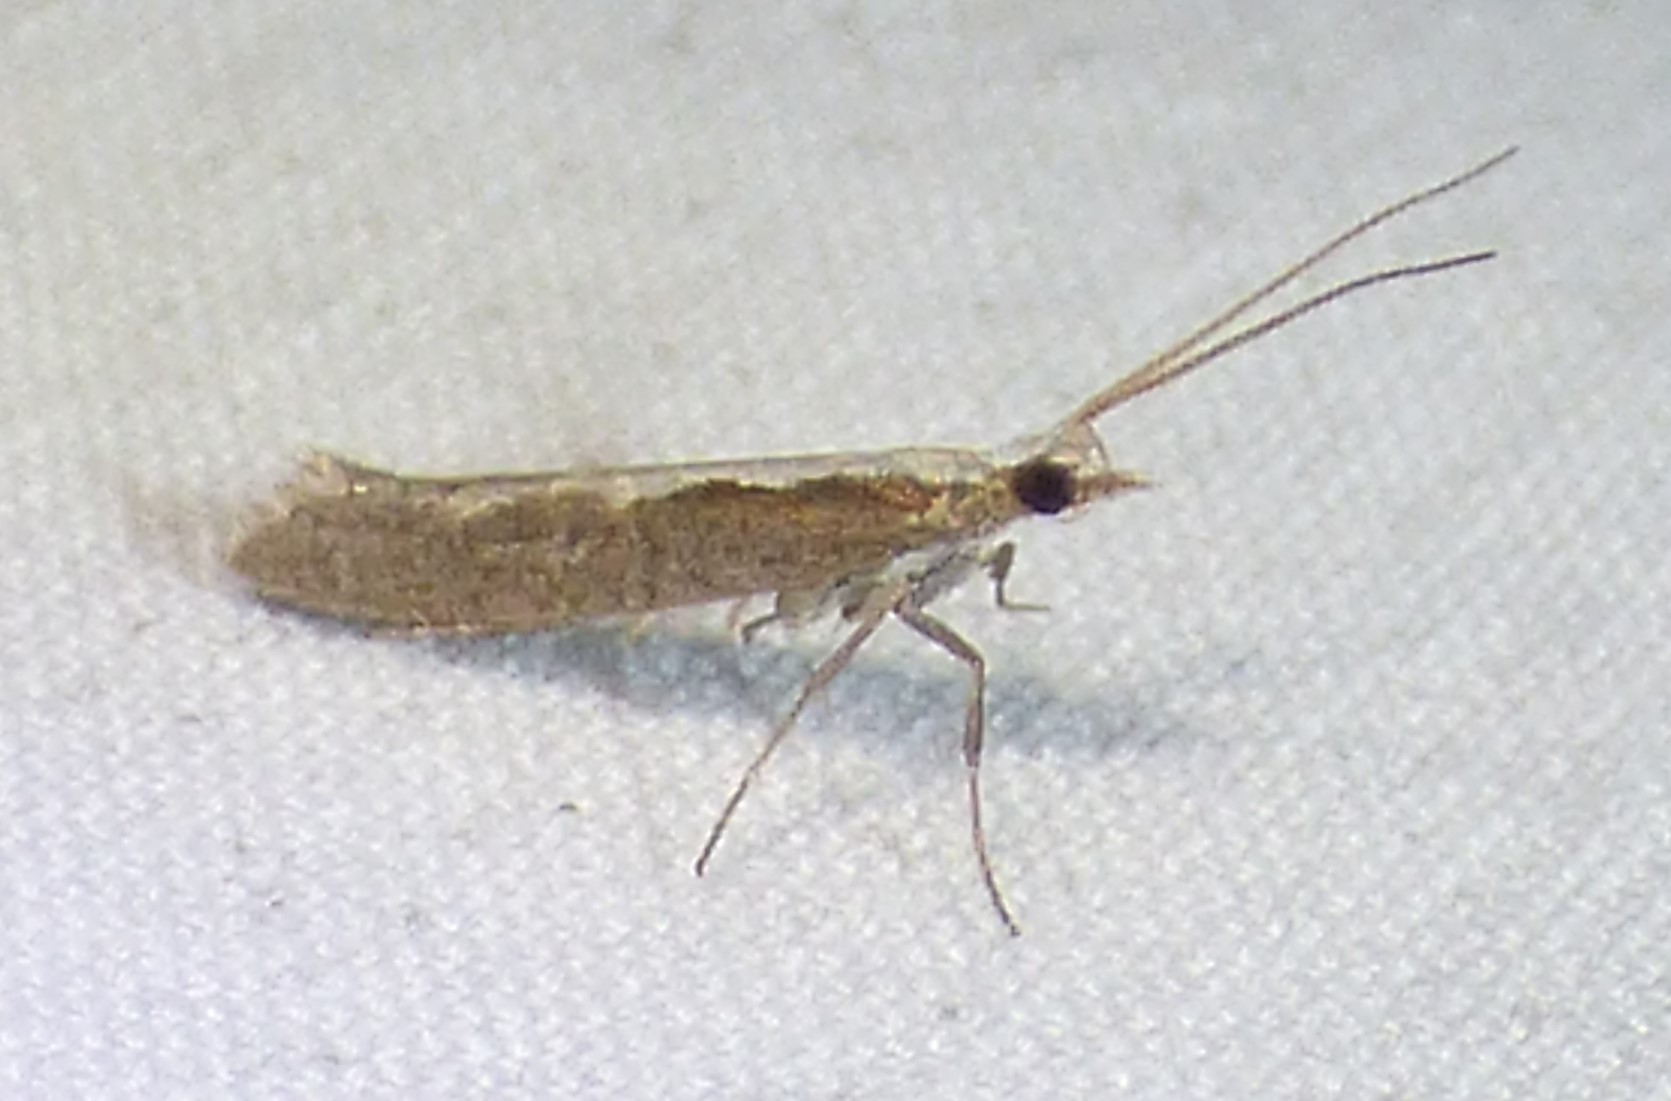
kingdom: Animalia
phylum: Arthropoda
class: Insecta
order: Lepidoptera
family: Plutellidae
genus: Plutella
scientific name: Plutella xylostella
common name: Diamond-back moth
